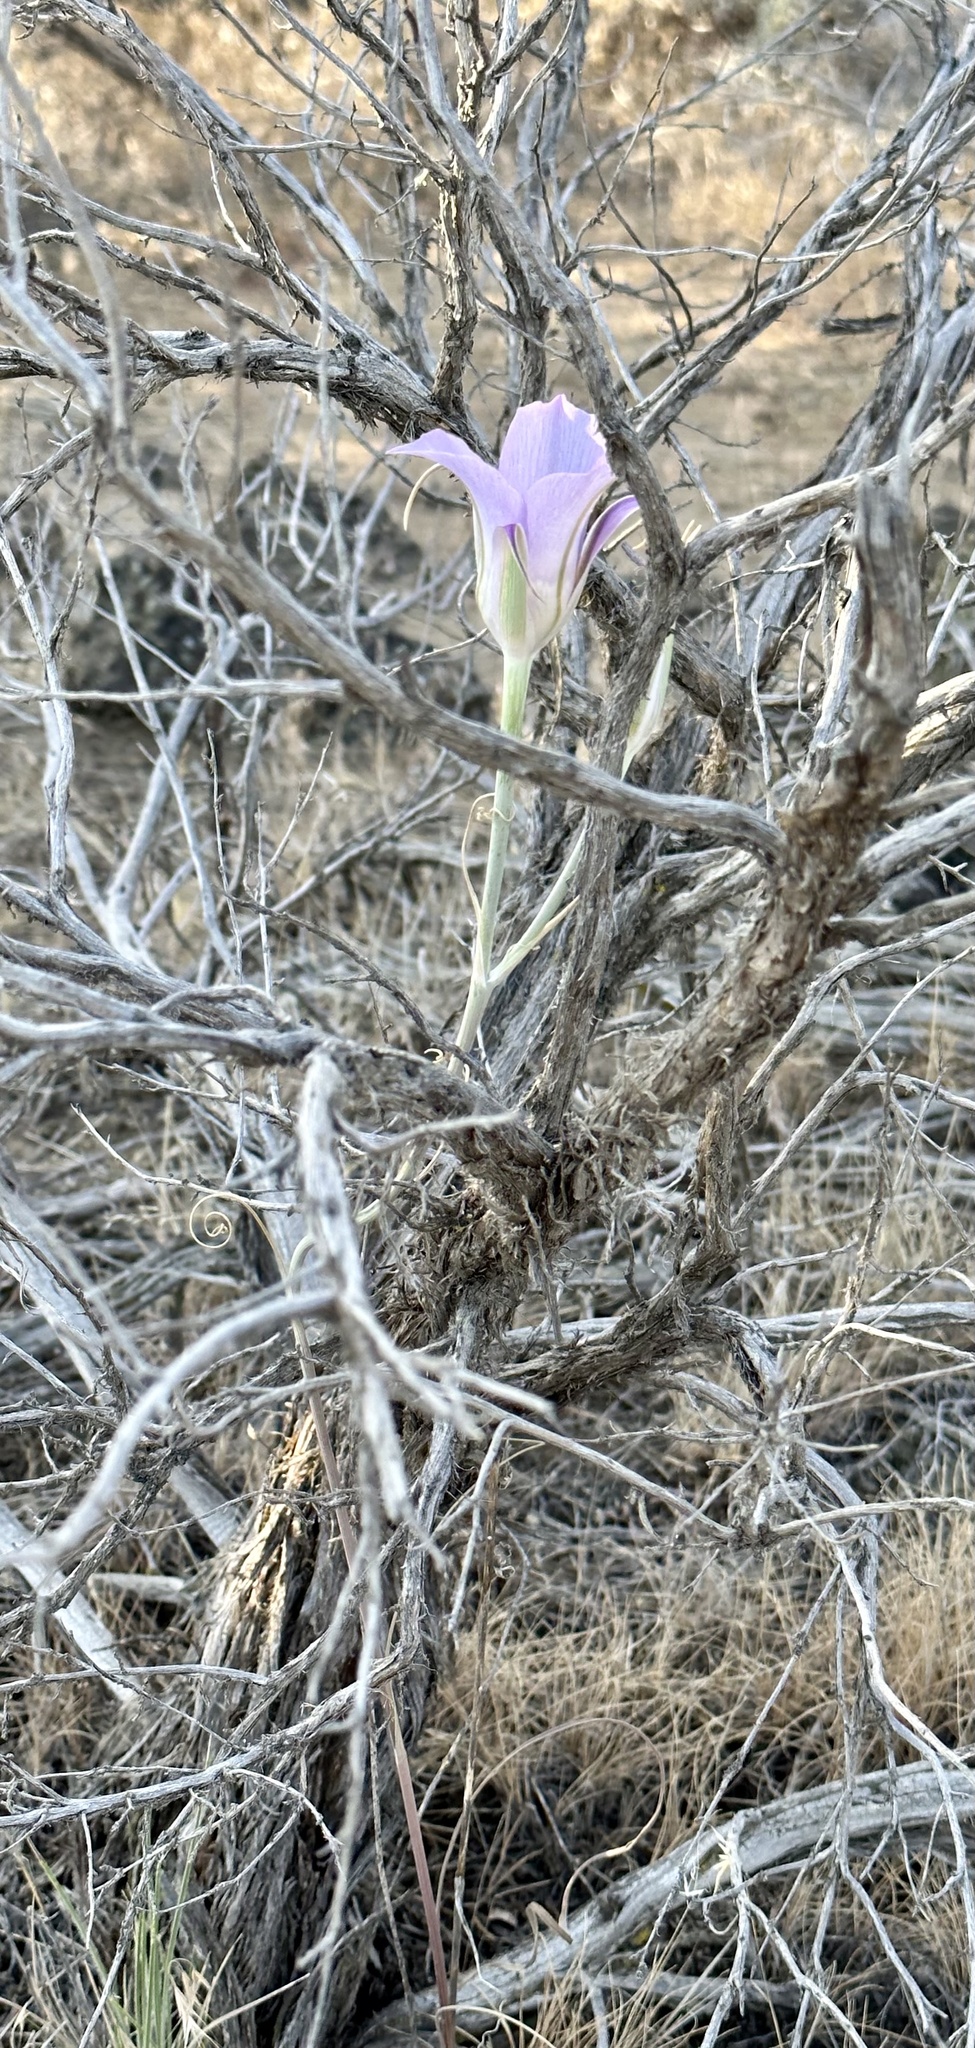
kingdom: Plantae
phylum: Tracheophyta
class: Liliopsida
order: Liliales
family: Liliaceae
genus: Calochortus
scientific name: Calochortus macrocarpus
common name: Green-band mariposa lily
